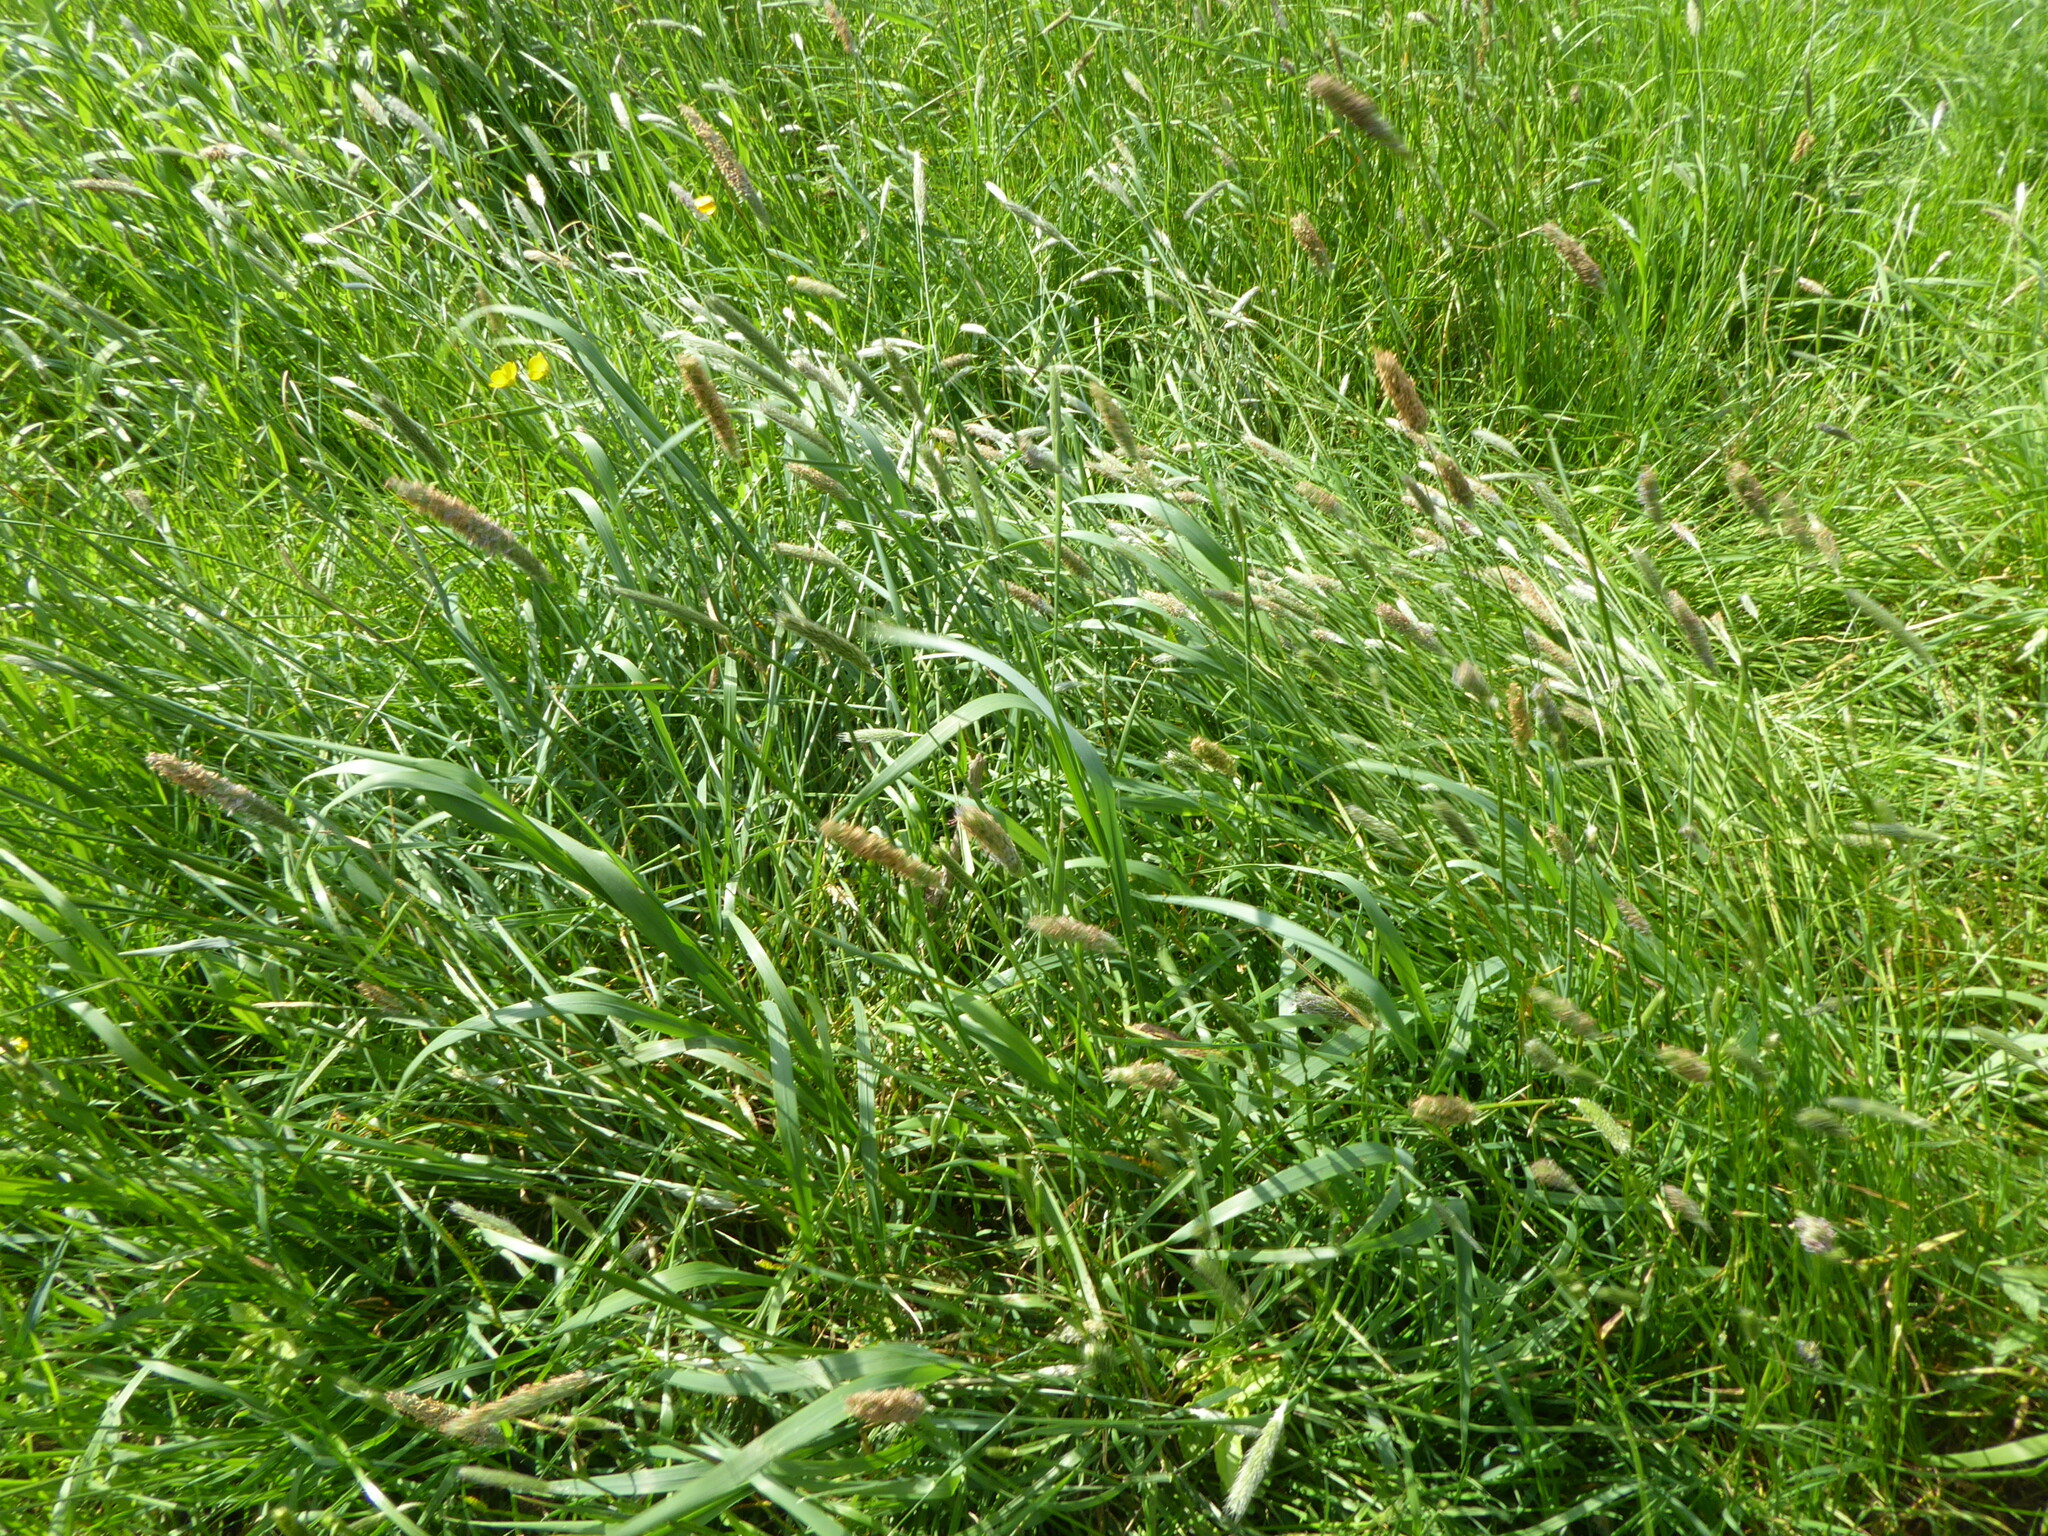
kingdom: Plantae
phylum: Tracheophyta
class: Liliopsida
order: Poales
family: Poaceae
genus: Alopecurus
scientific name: Alopecurus pratensis
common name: Meadow foxtail
